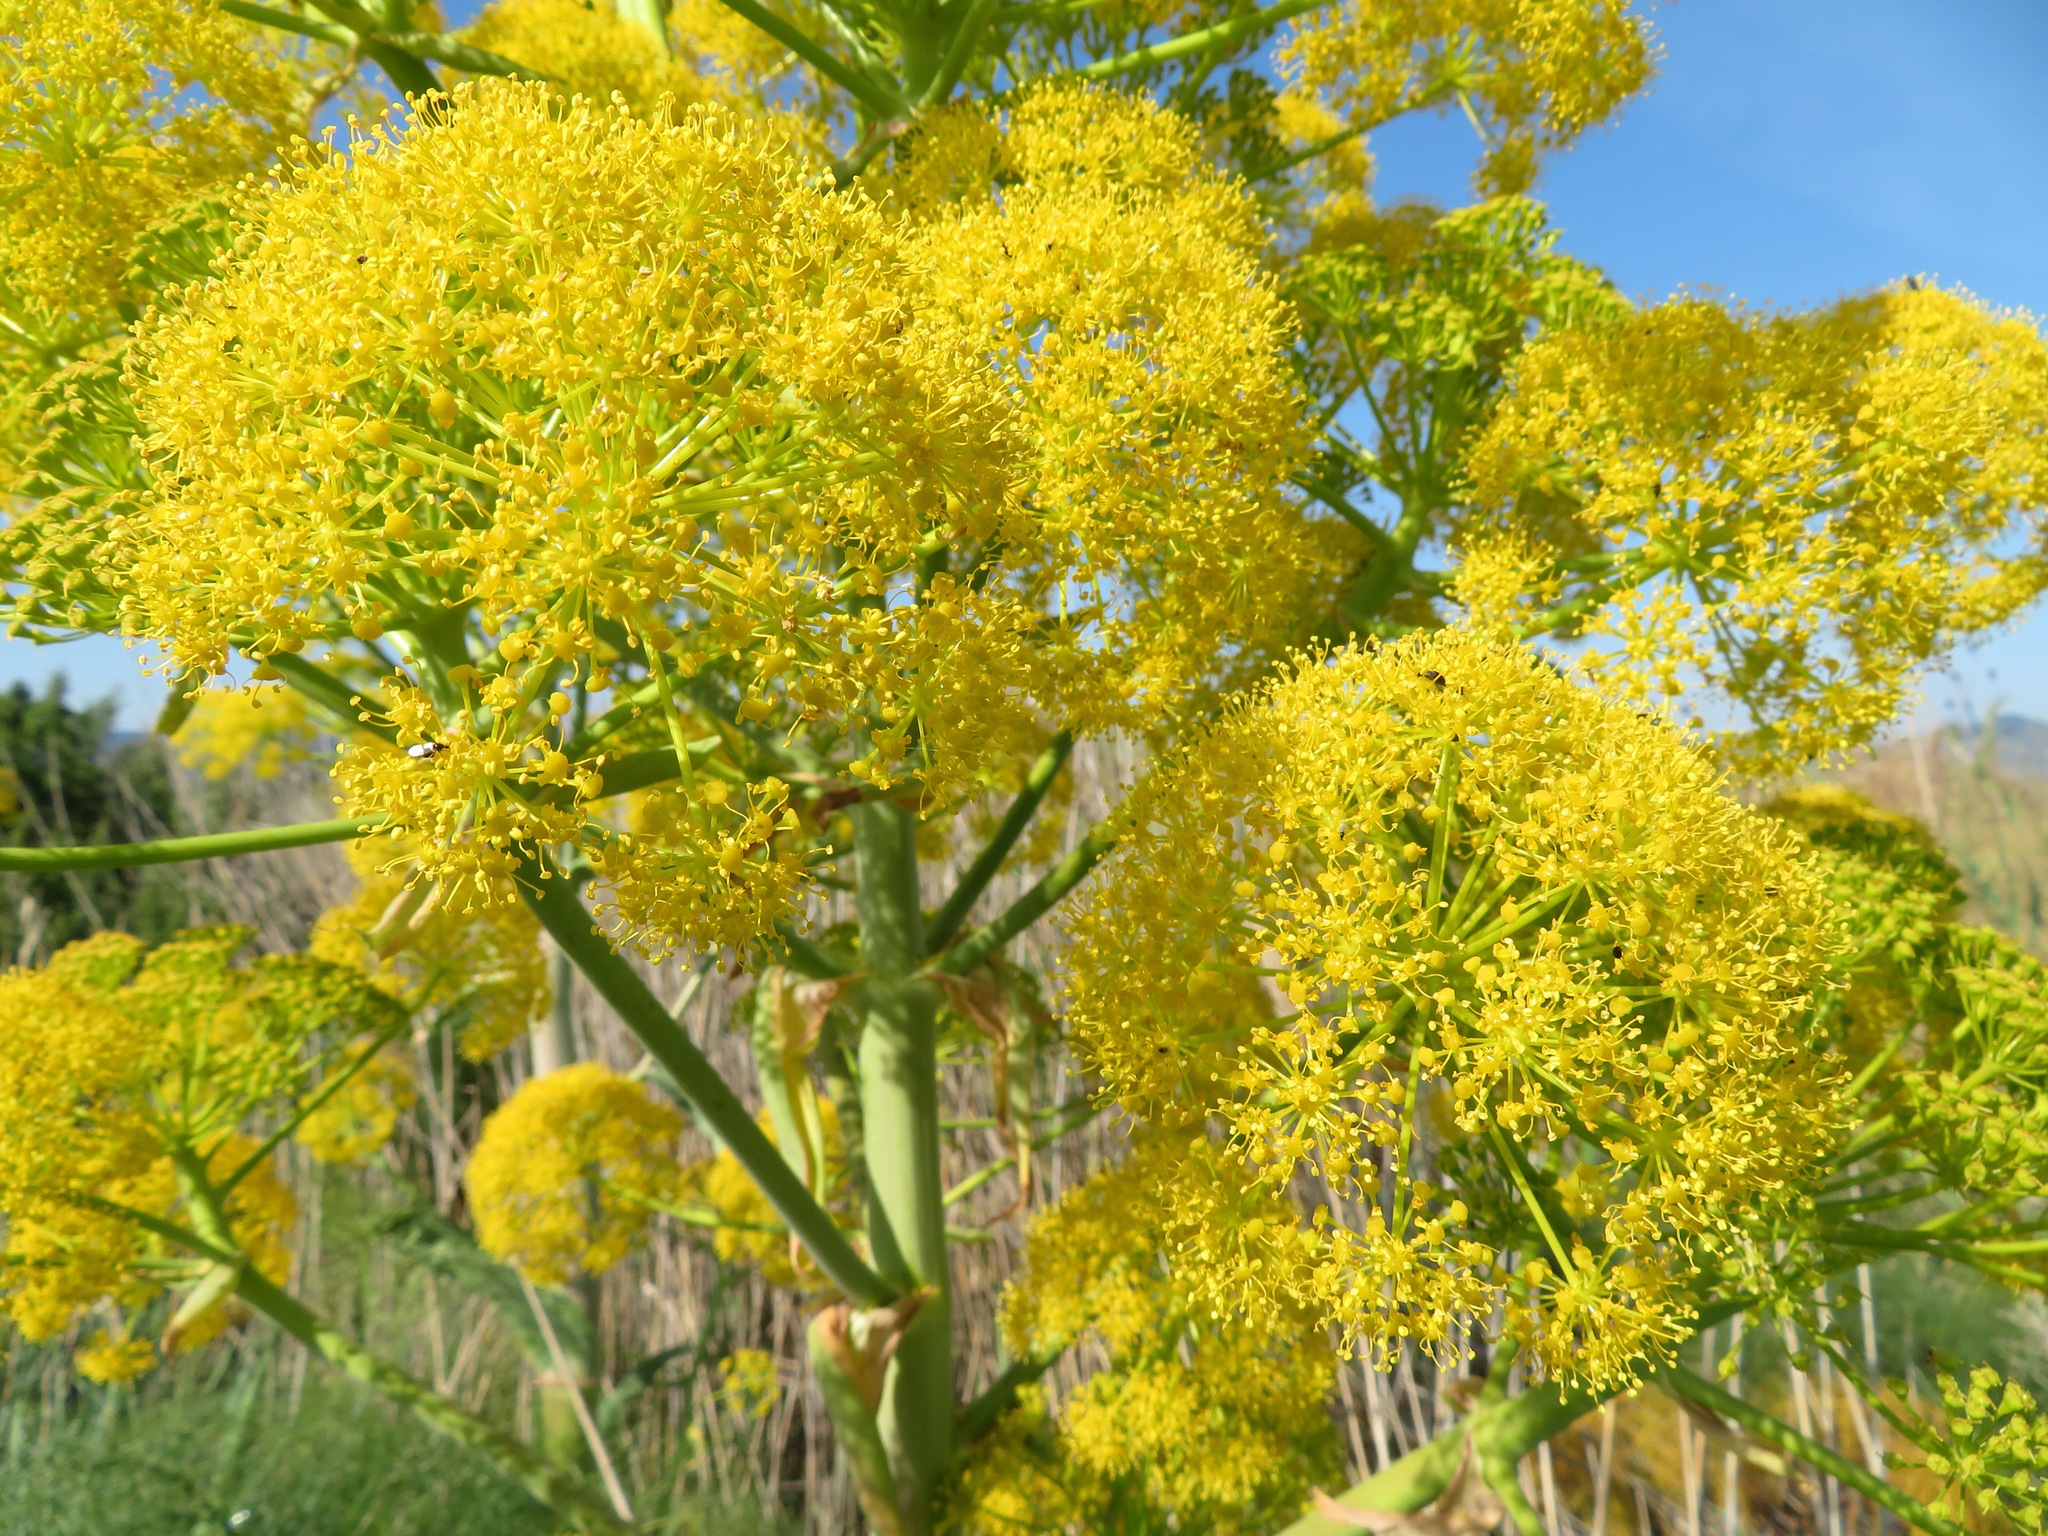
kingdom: Plantae
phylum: Tracheophyta
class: Magnoliopsida
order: Apiales
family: Apiaceae
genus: Ferula
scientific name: Ferula communis
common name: Giant fennel
